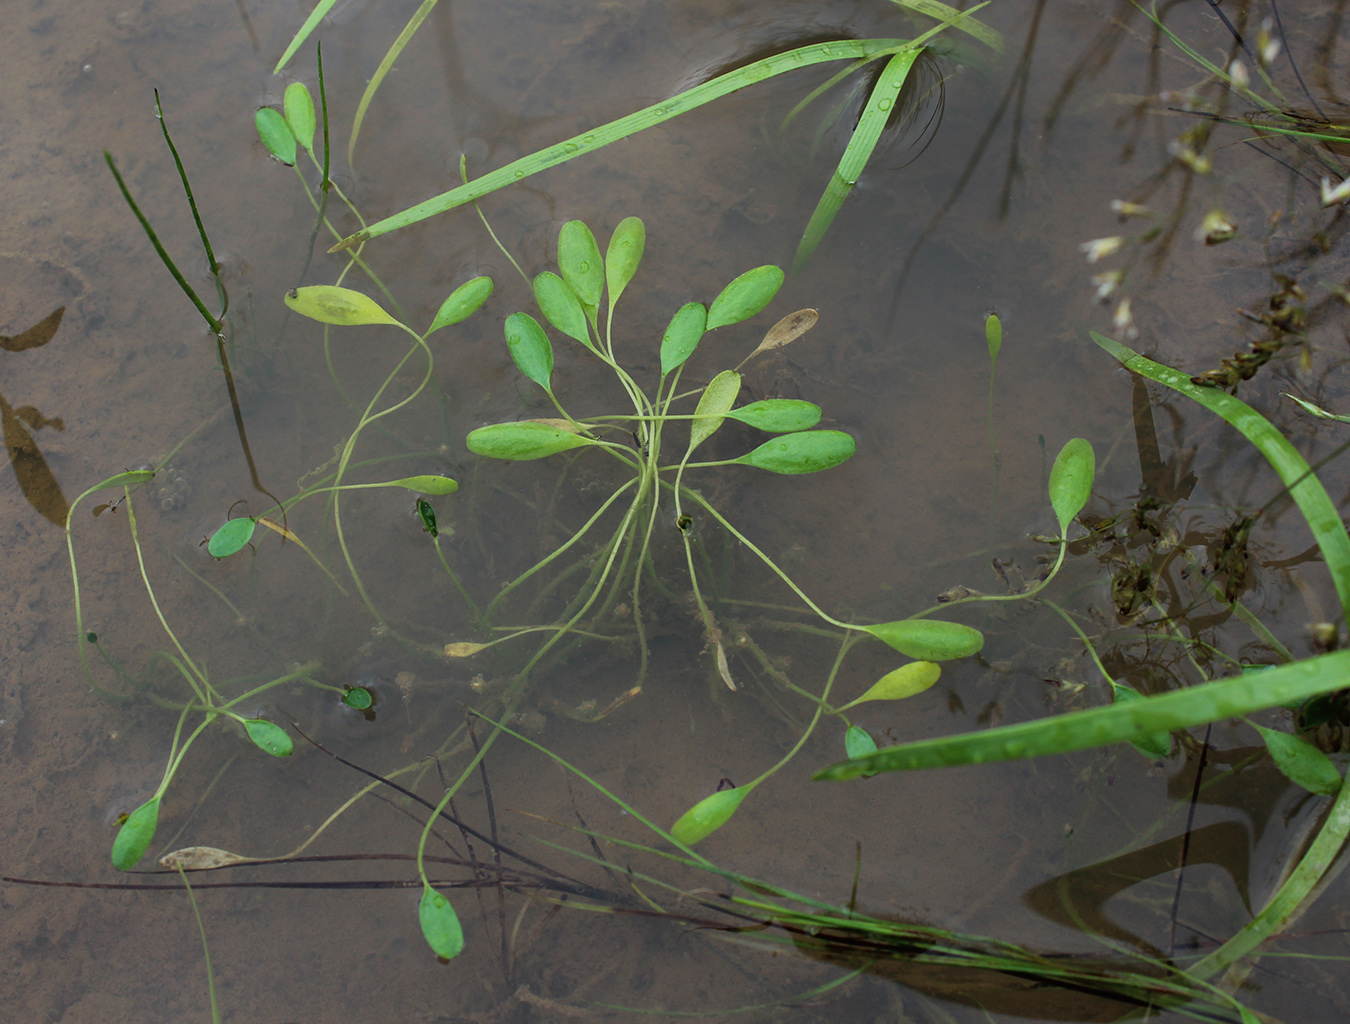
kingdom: Plantae
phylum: Tracheophyta
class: Magnoliopsida
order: Lamiales
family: Scrophulariaceae
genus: Limosella
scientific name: Limosella aquatica
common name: Mudwort
